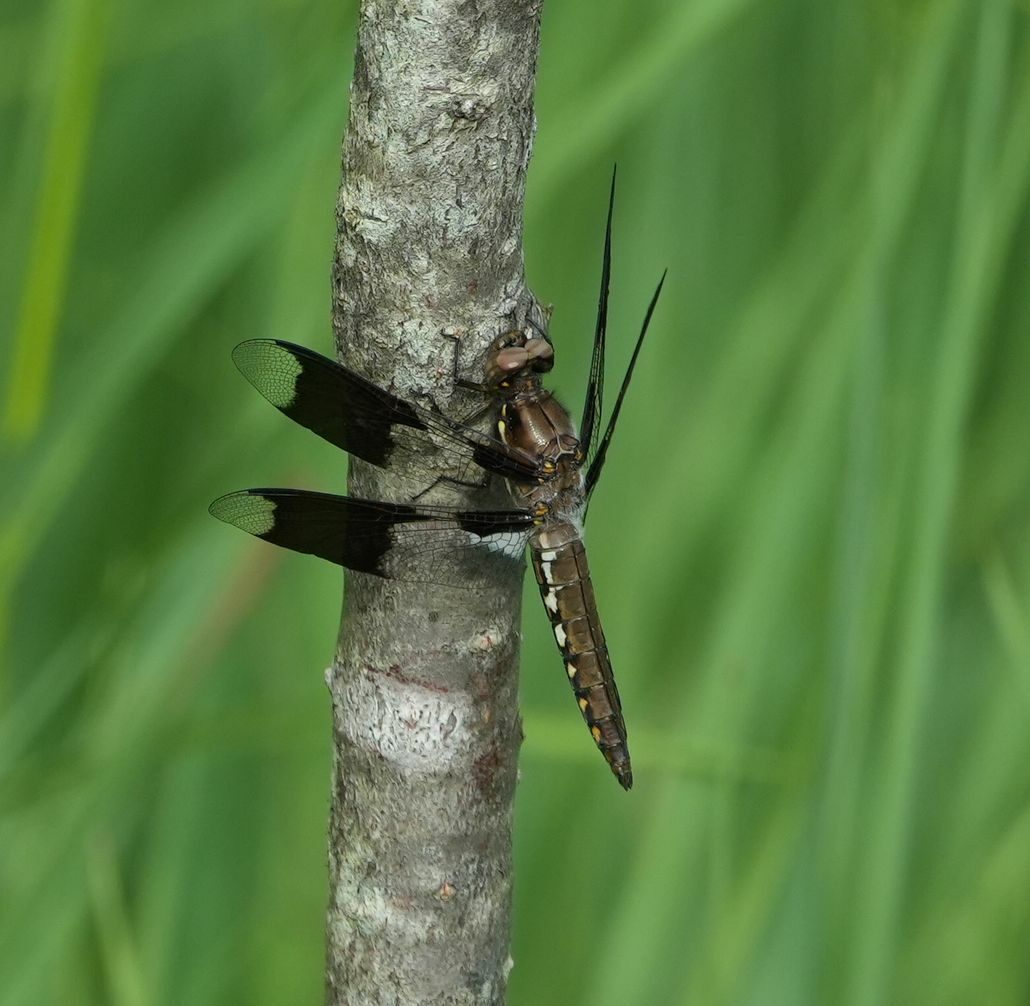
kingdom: Animalia
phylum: Arthropoda
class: Insecta
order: Odonata
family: Libellulidae
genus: Plathemis
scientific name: Plathemis lydia
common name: Common whitetail
